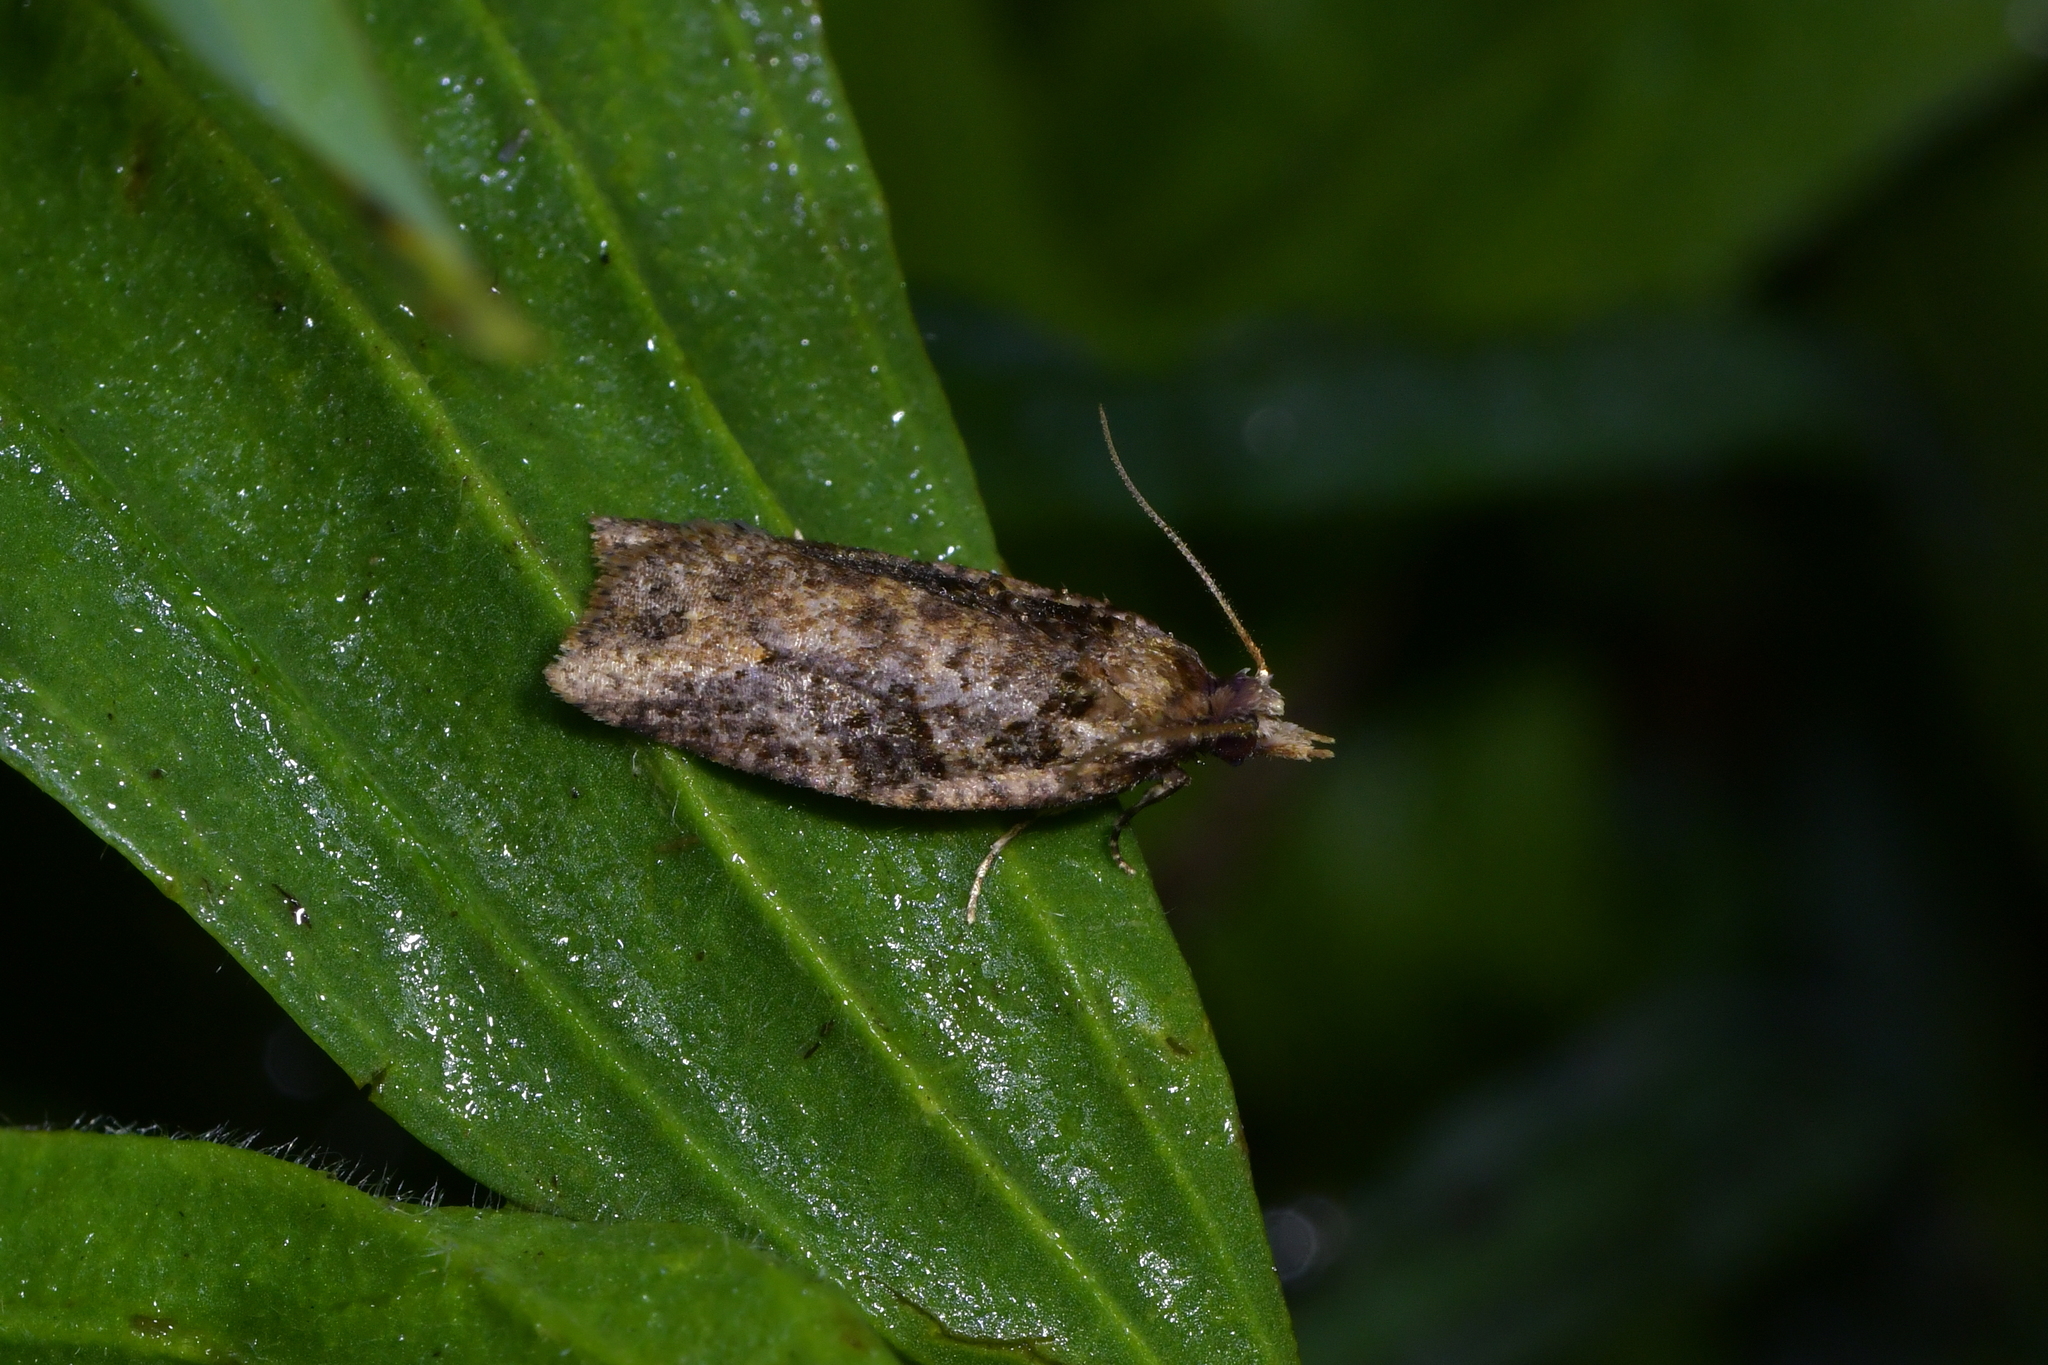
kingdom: Animalia
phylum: Arthropoda
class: Insecta
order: Lepidoptera
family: Tortricidae
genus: Ctenopseustis
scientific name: Ctenopseustis obliquana
